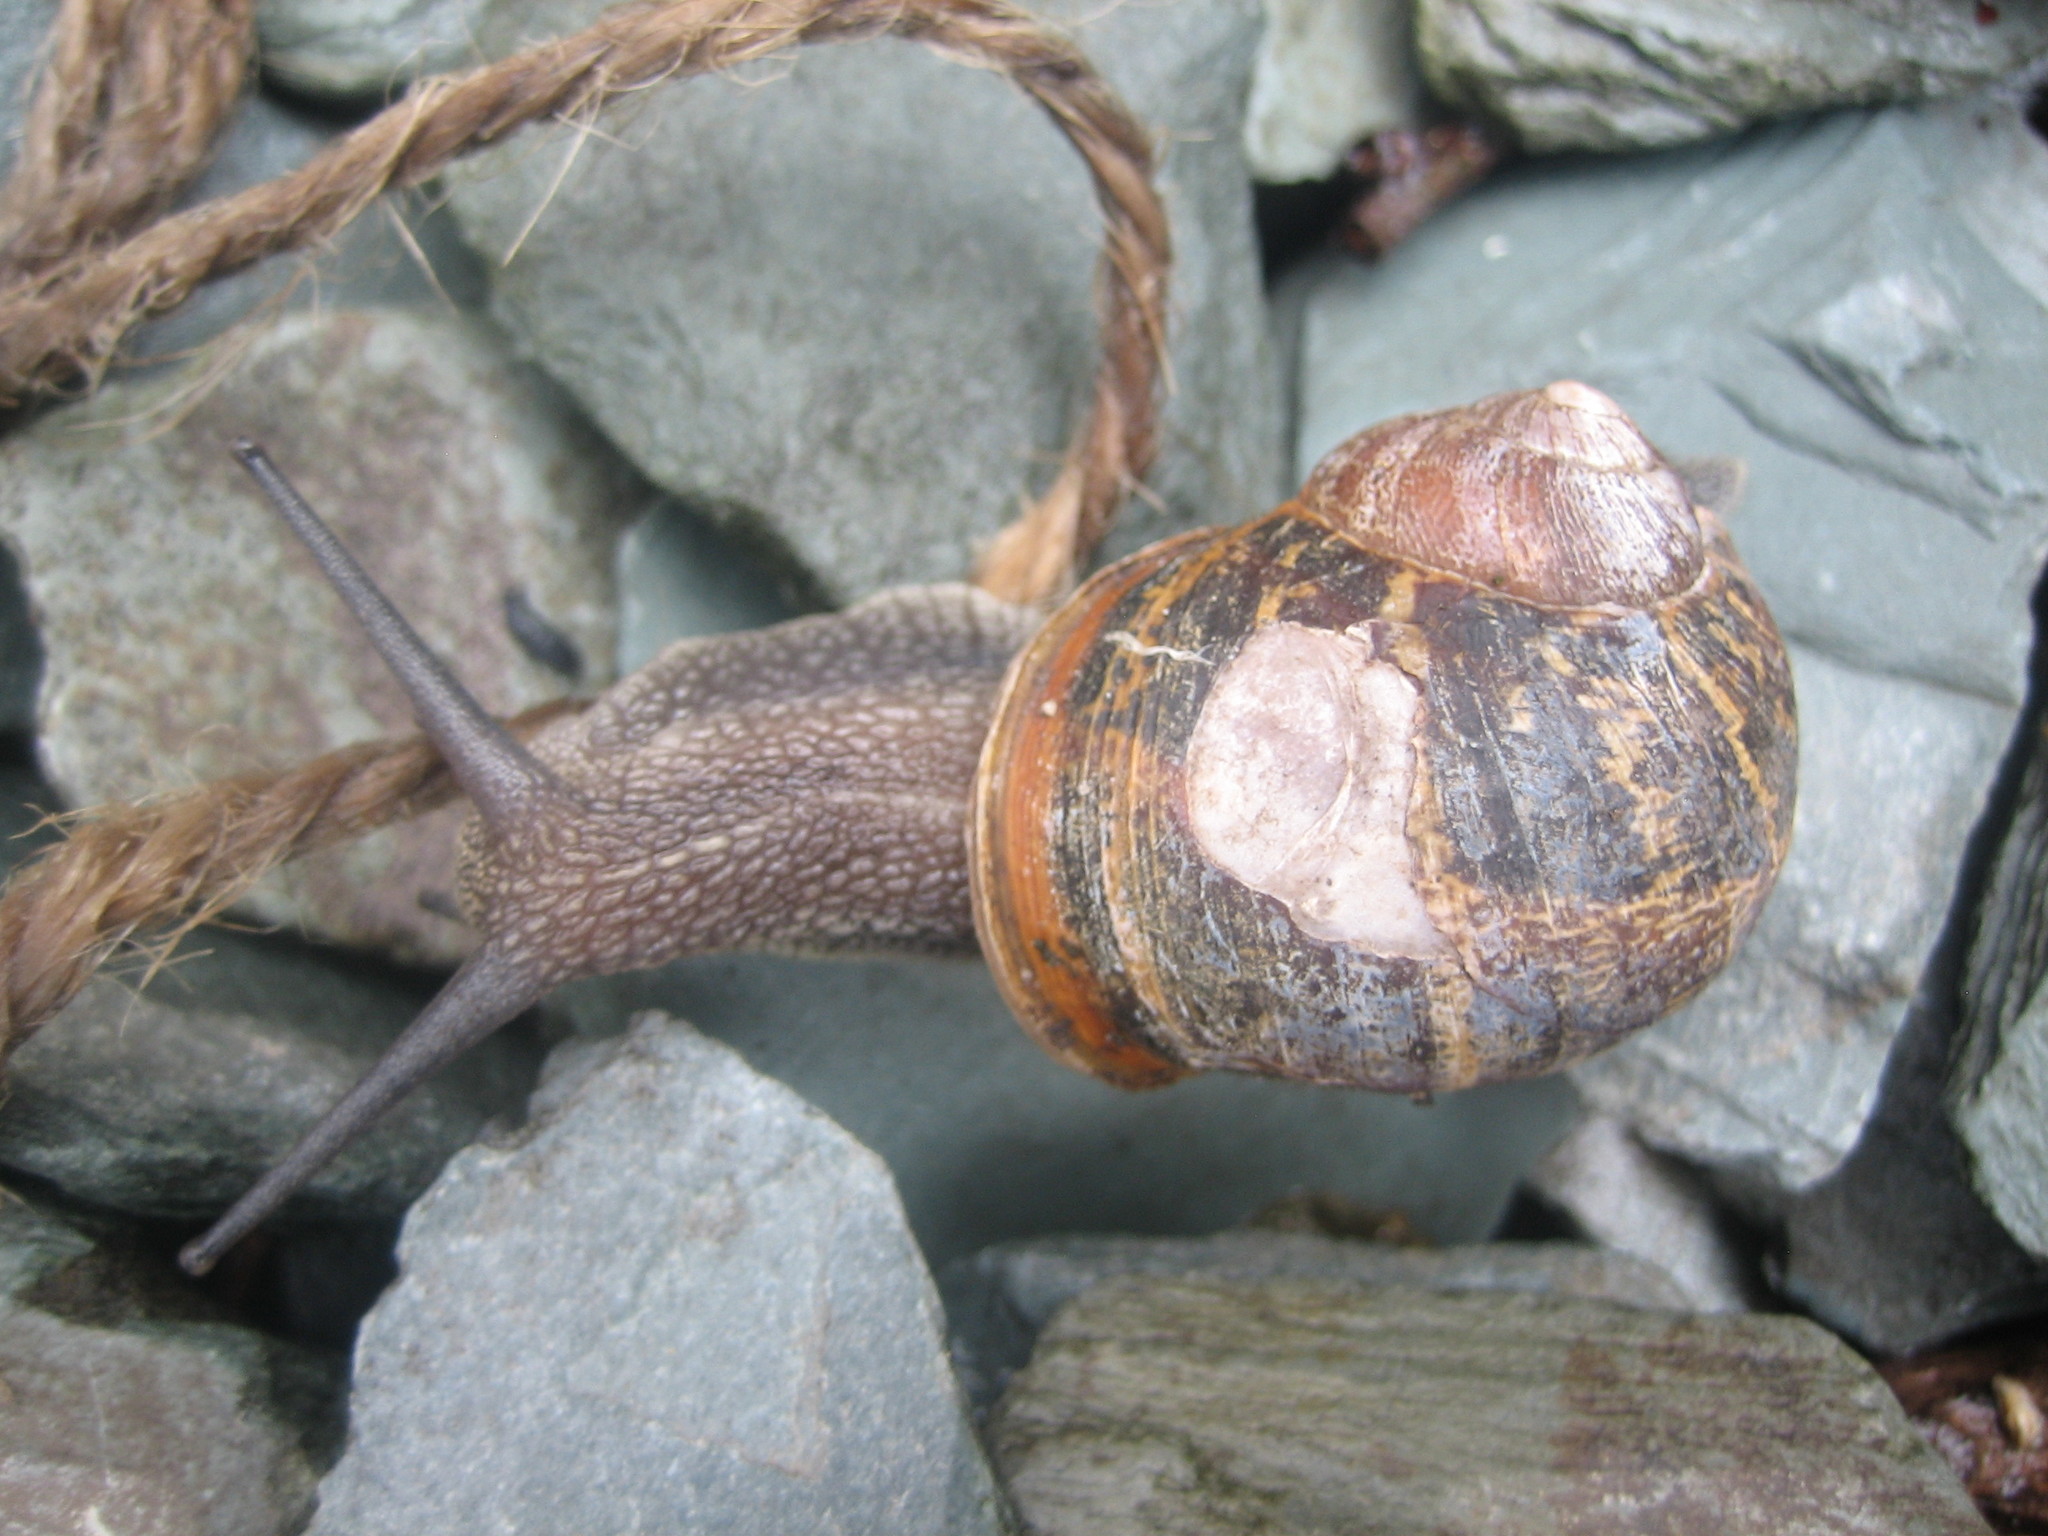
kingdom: Animalia
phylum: Mollusca
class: Gastropoda
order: Stylommatophora
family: Helicidae
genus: Cornu
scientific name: Cornu aspersum
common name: Brown garden snail
